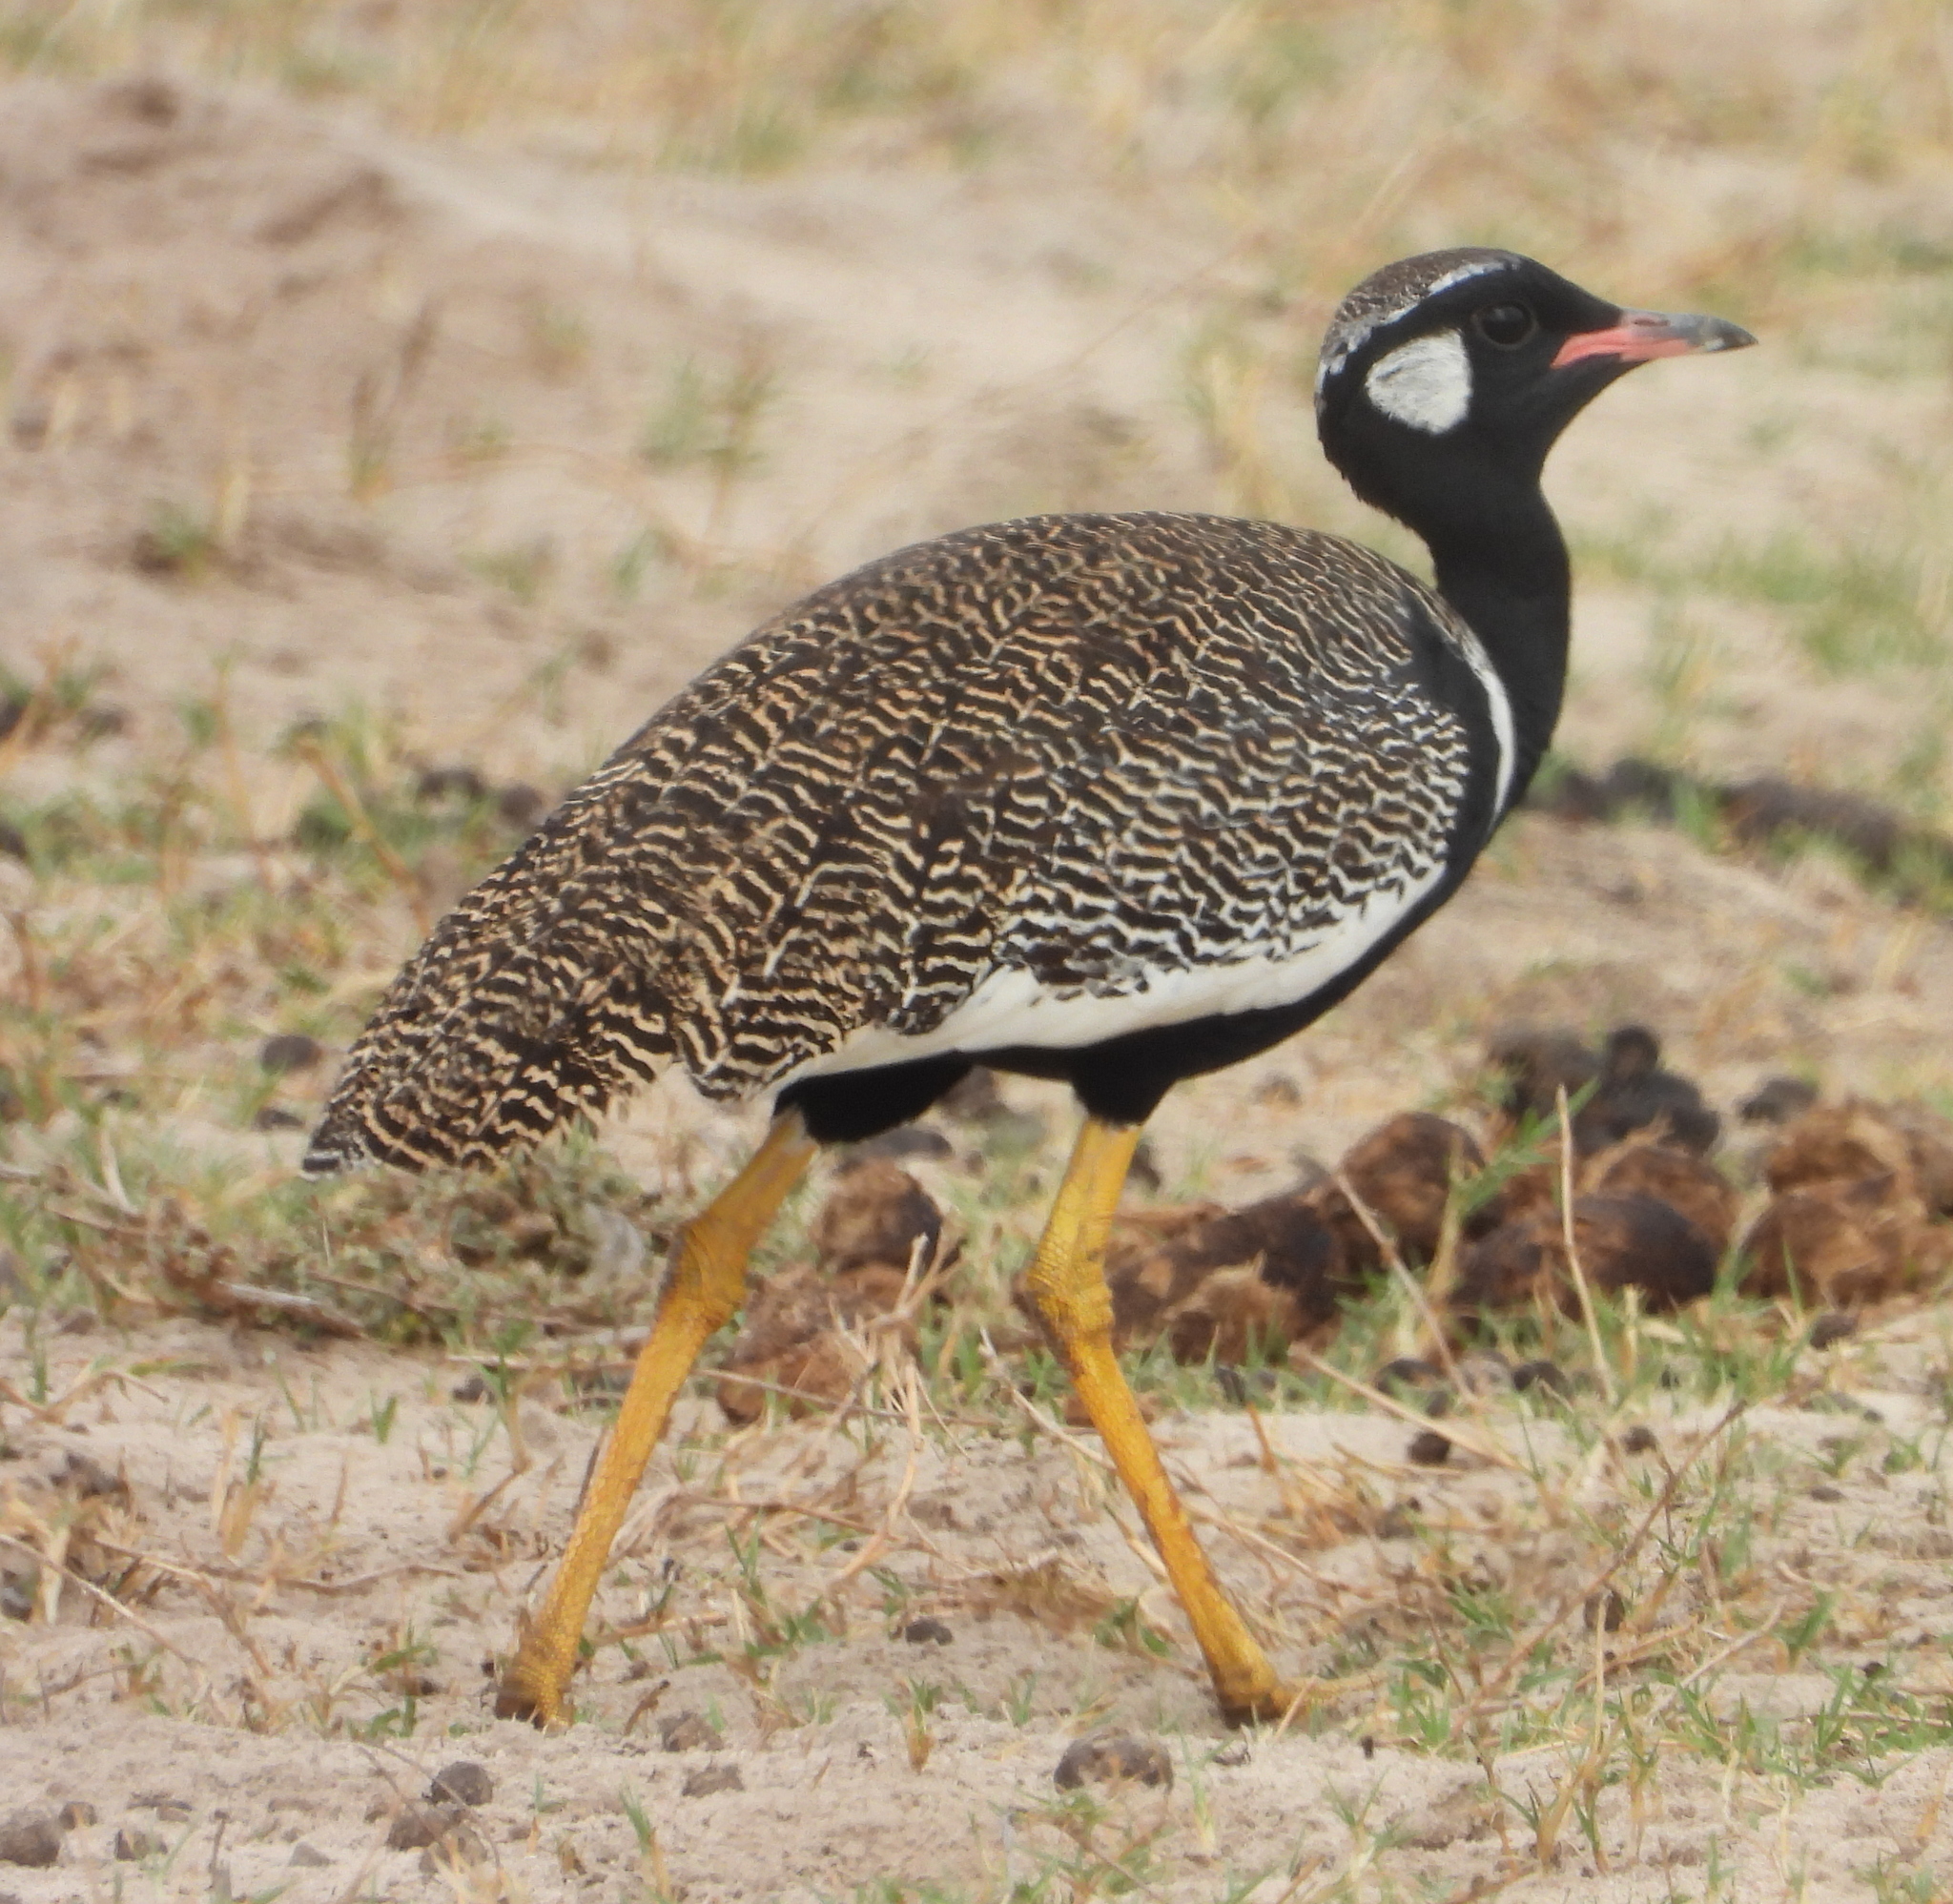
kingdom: Animalia
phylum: Chordata
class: Aves
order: Otidiformes
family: Otididae
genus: Afrotis
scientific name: Afrotis afra
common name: Southern black korhaan
